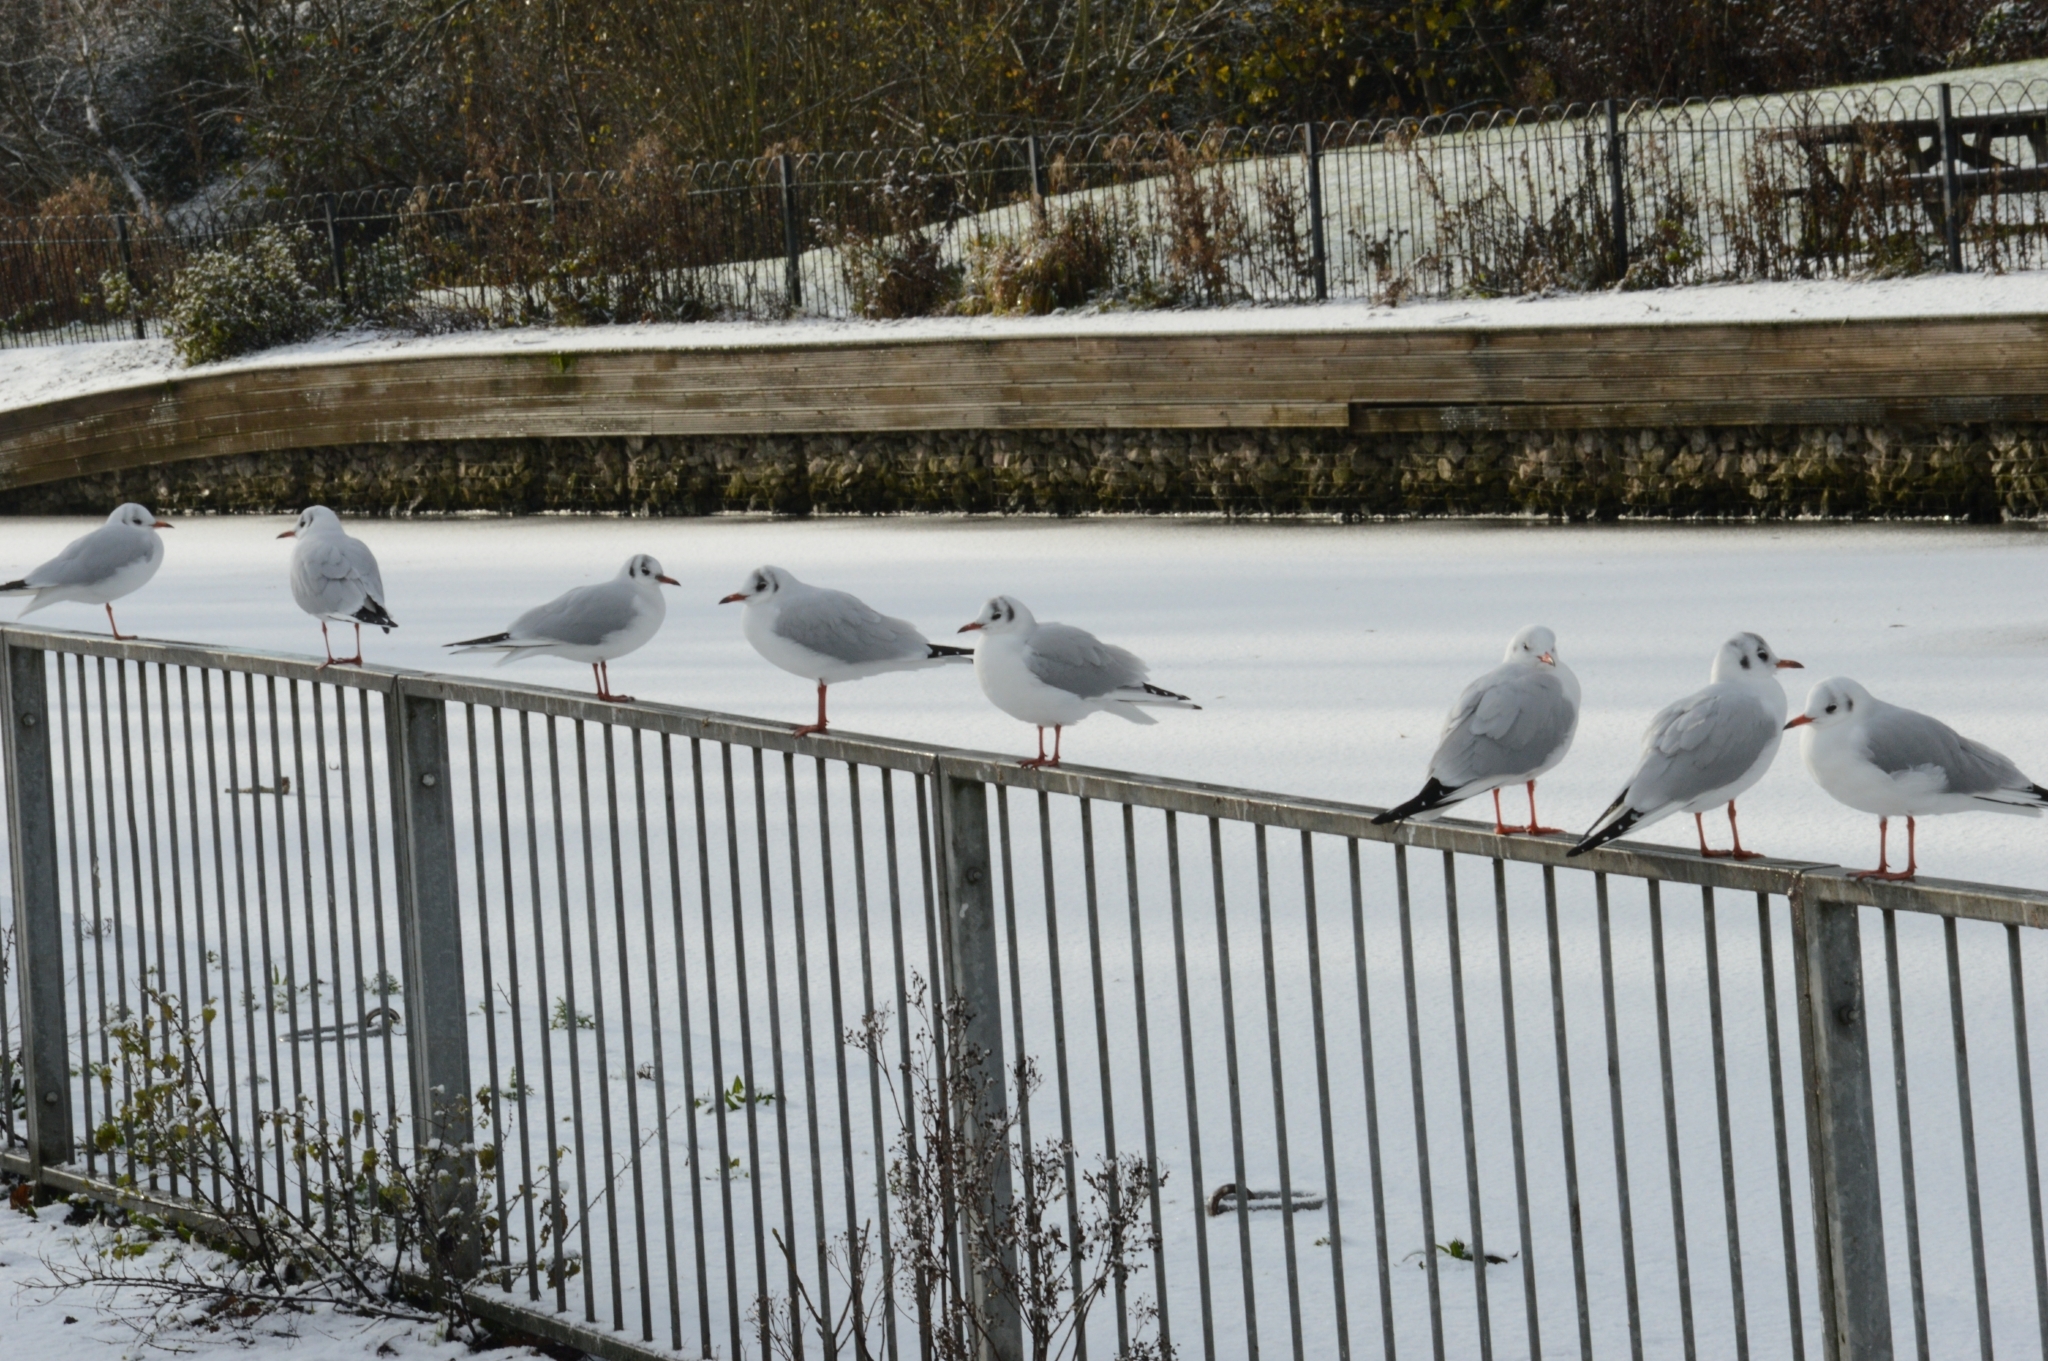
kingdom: Animalia
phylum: Chordata
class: Aves
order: Charadriiformes
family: Laridae
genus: Chroicocephalus
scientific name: Chroicocephalus ridibundus
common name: Black-headed gull
